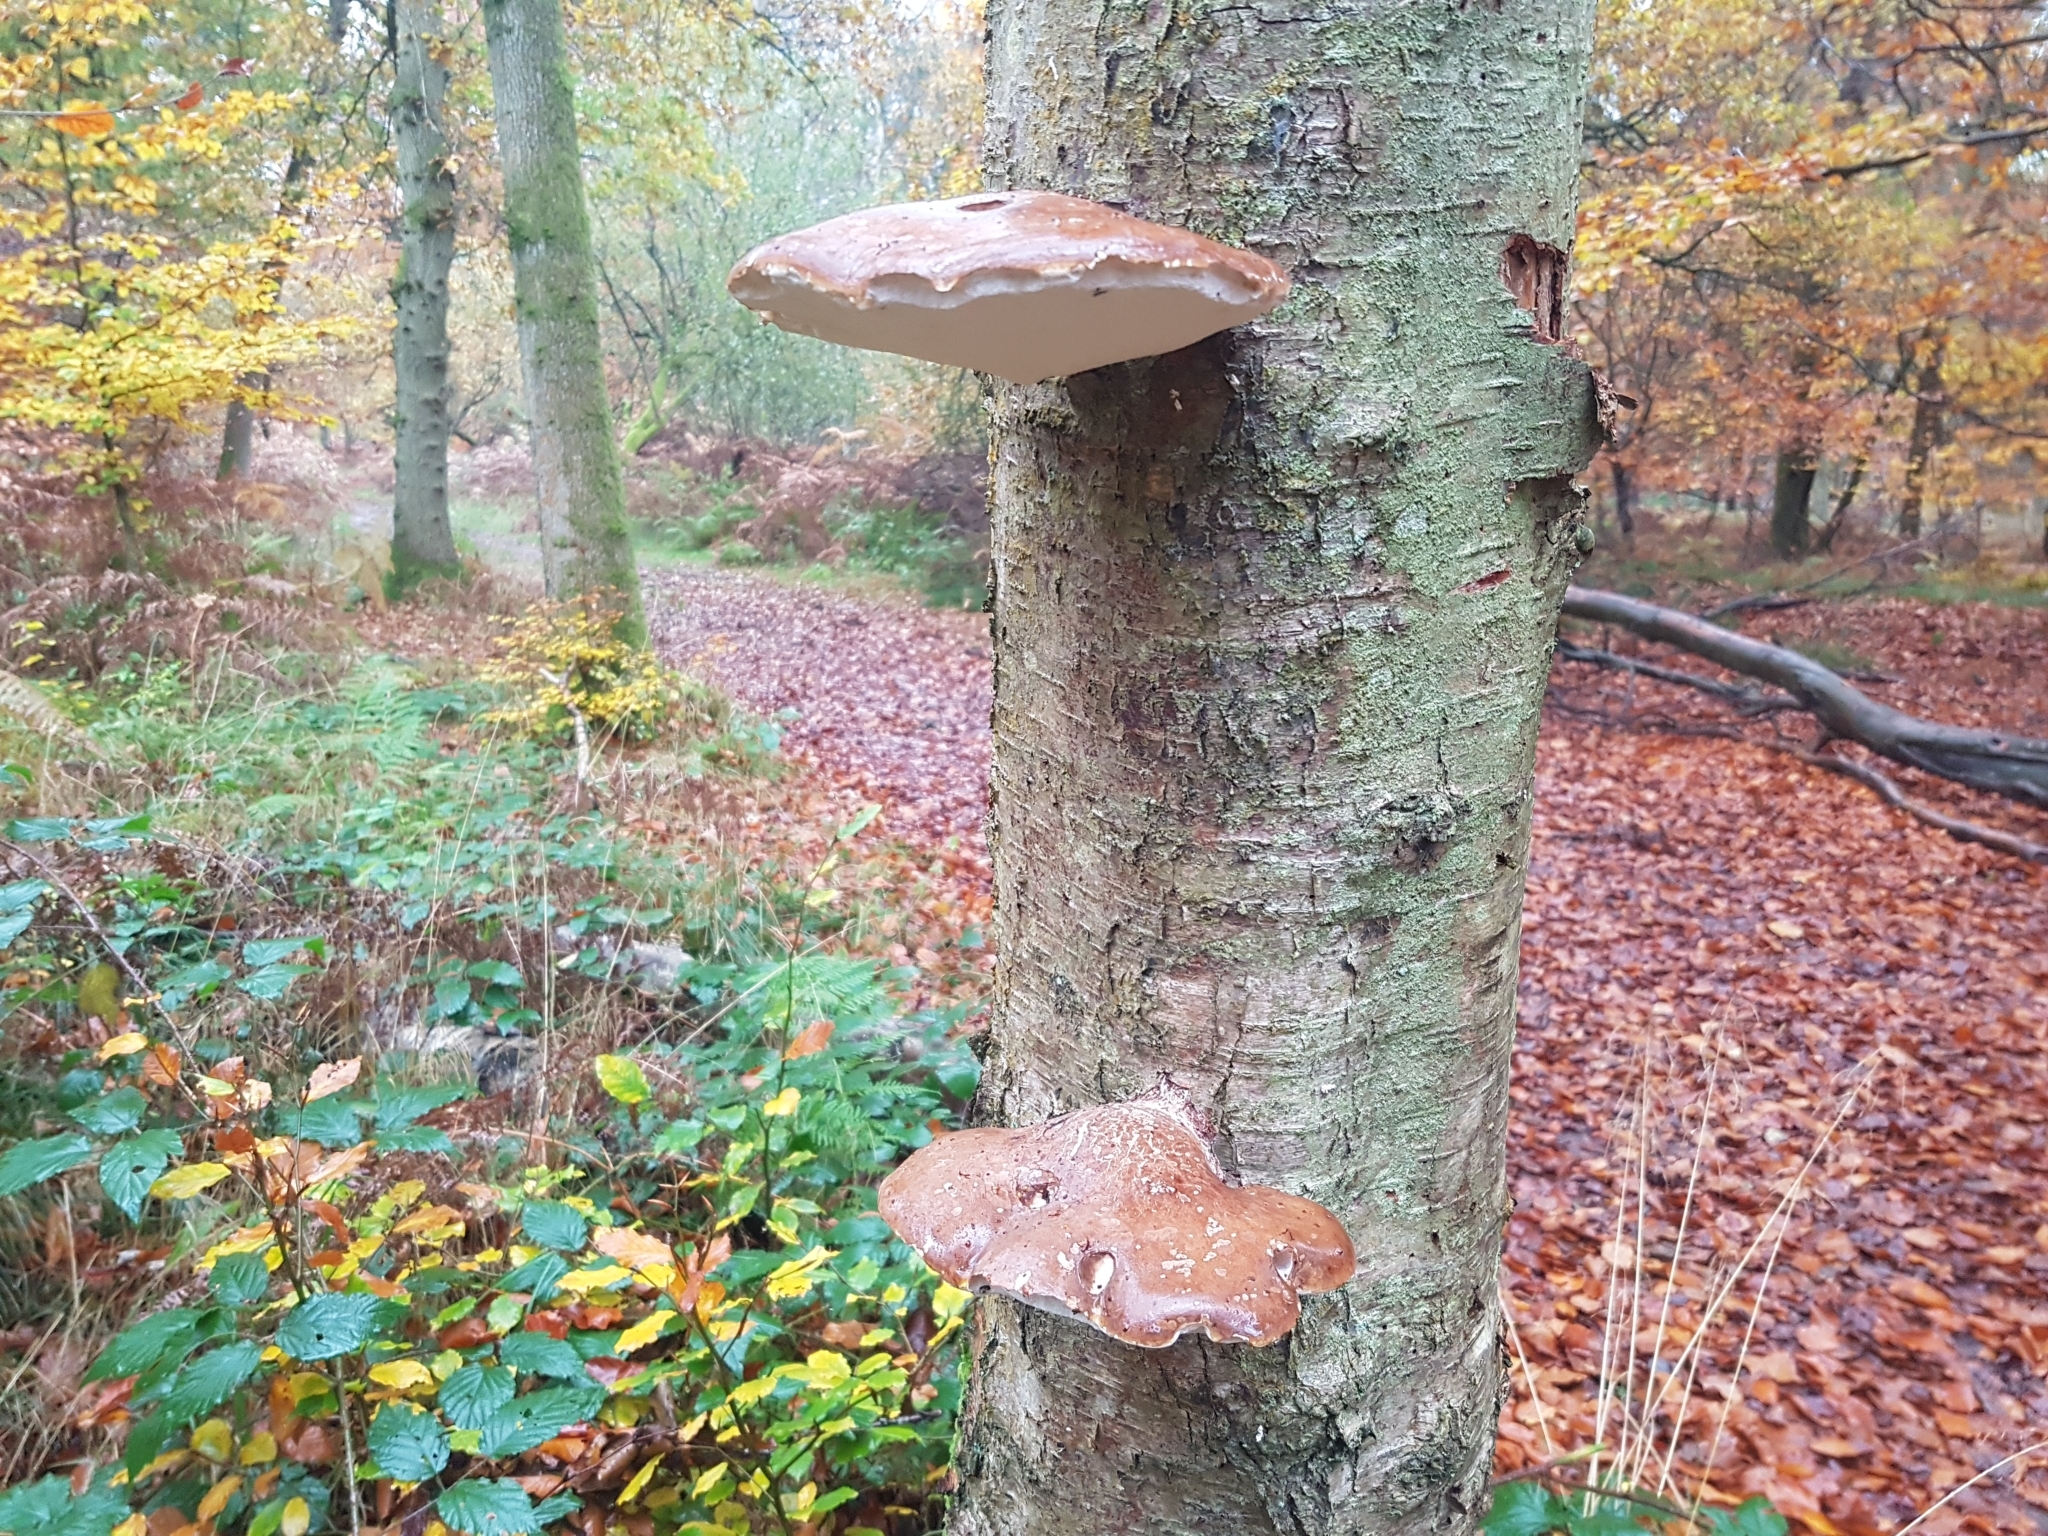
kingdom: Fungi
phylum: Basidiomycota
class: Agaricomycetes
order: Polyporales
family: Fomitopsidaceae
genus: Fomitopsis
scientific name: Fomitopsis betulina
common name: Birch polypore
